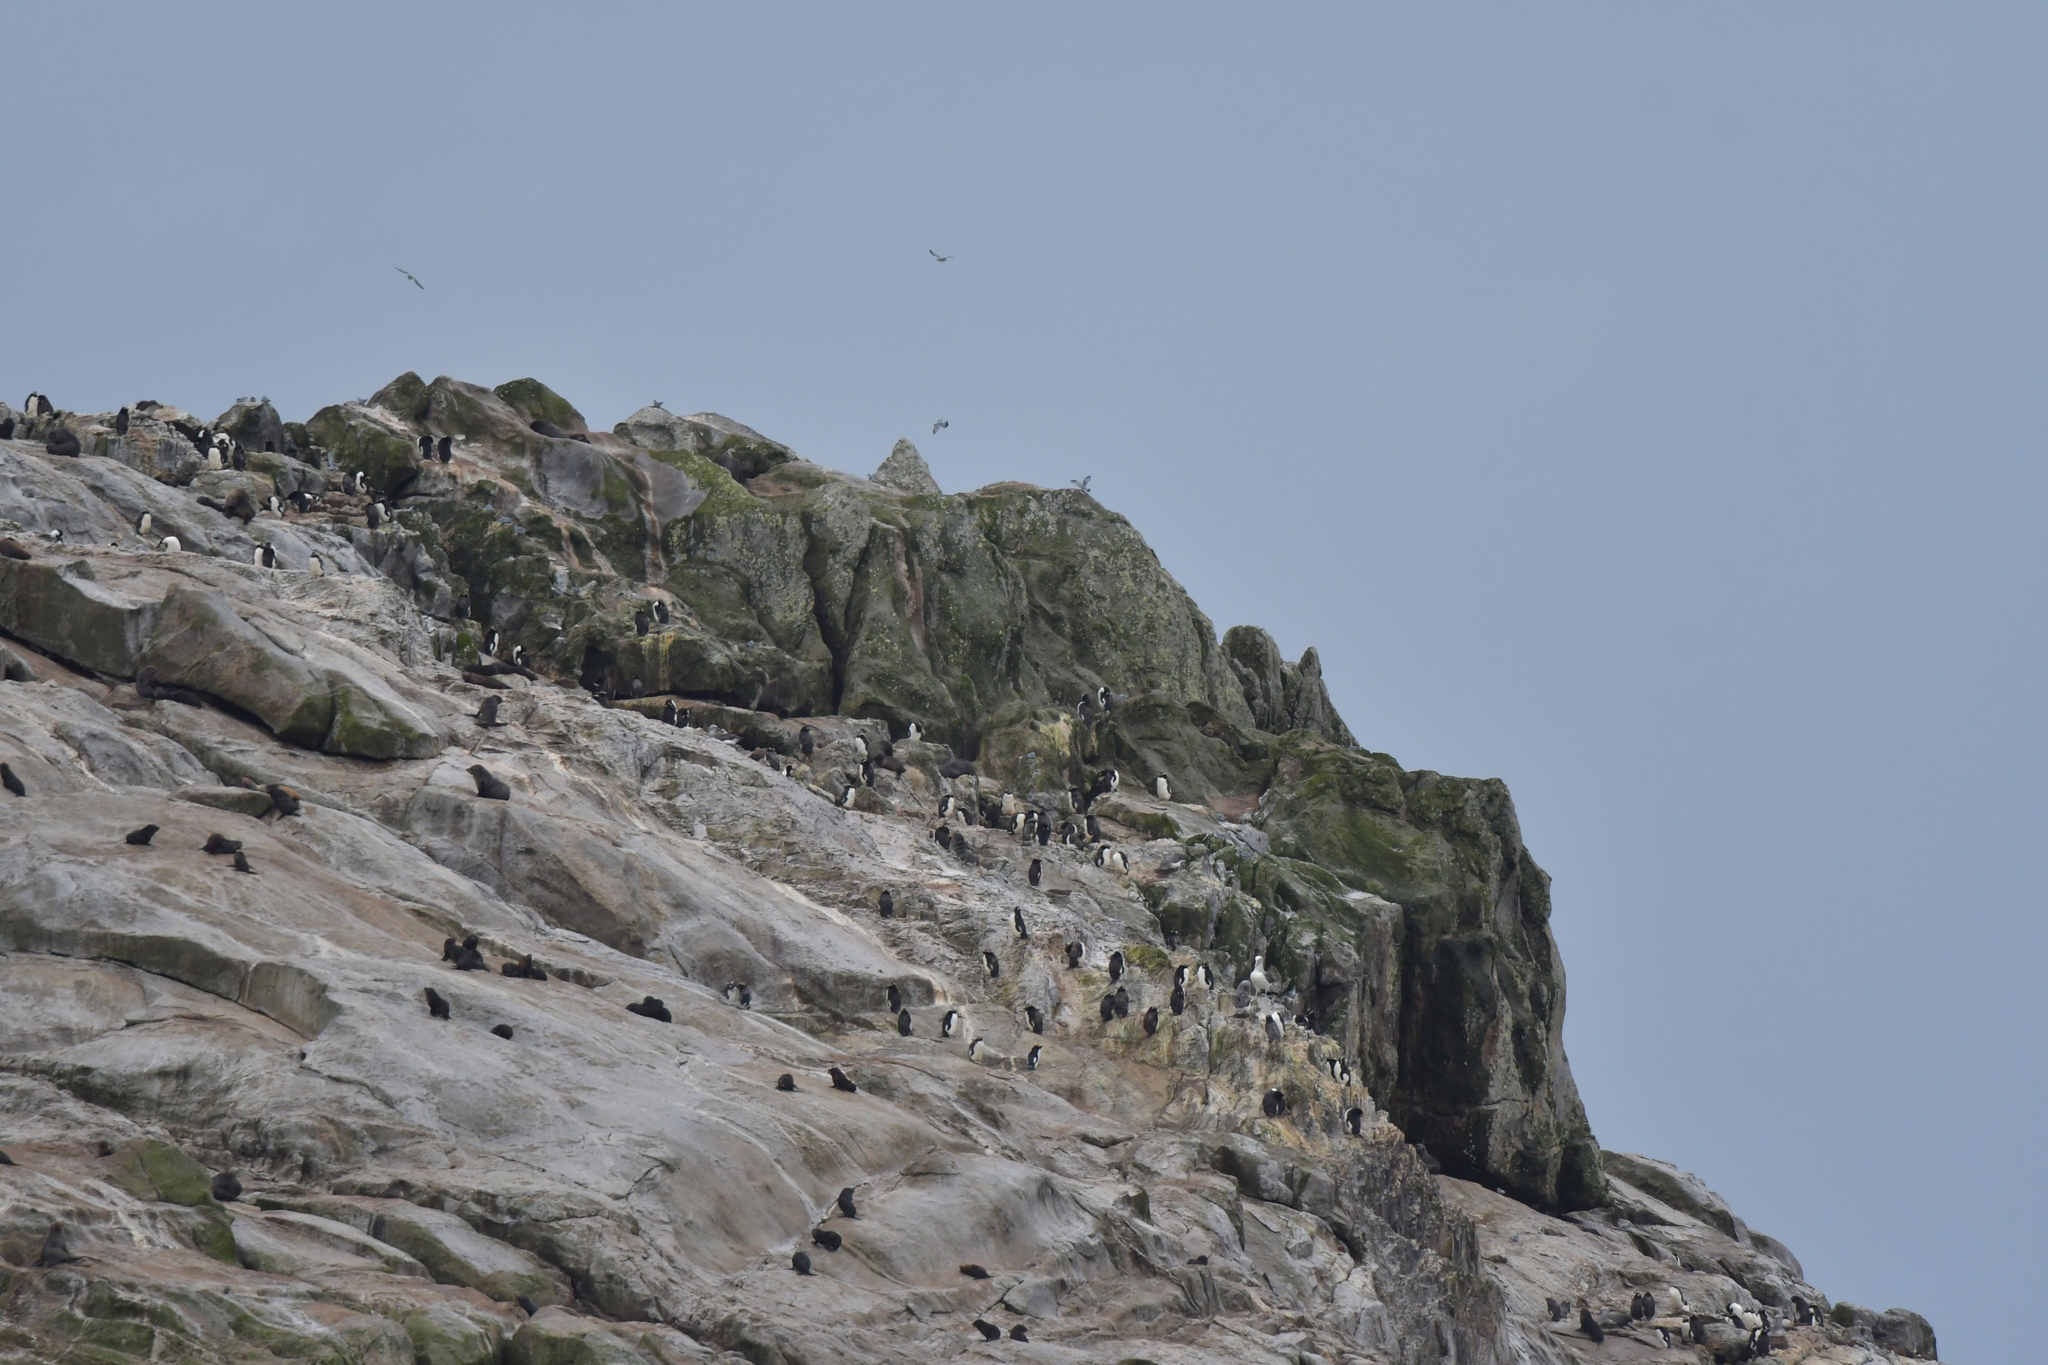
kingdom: Animalia
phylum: Chordata
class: Aves
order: Sphenisciformes
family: Spheniscidae
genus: Eudyptes
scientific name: Eudyptes sclateri
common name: Erect-crested penguin
